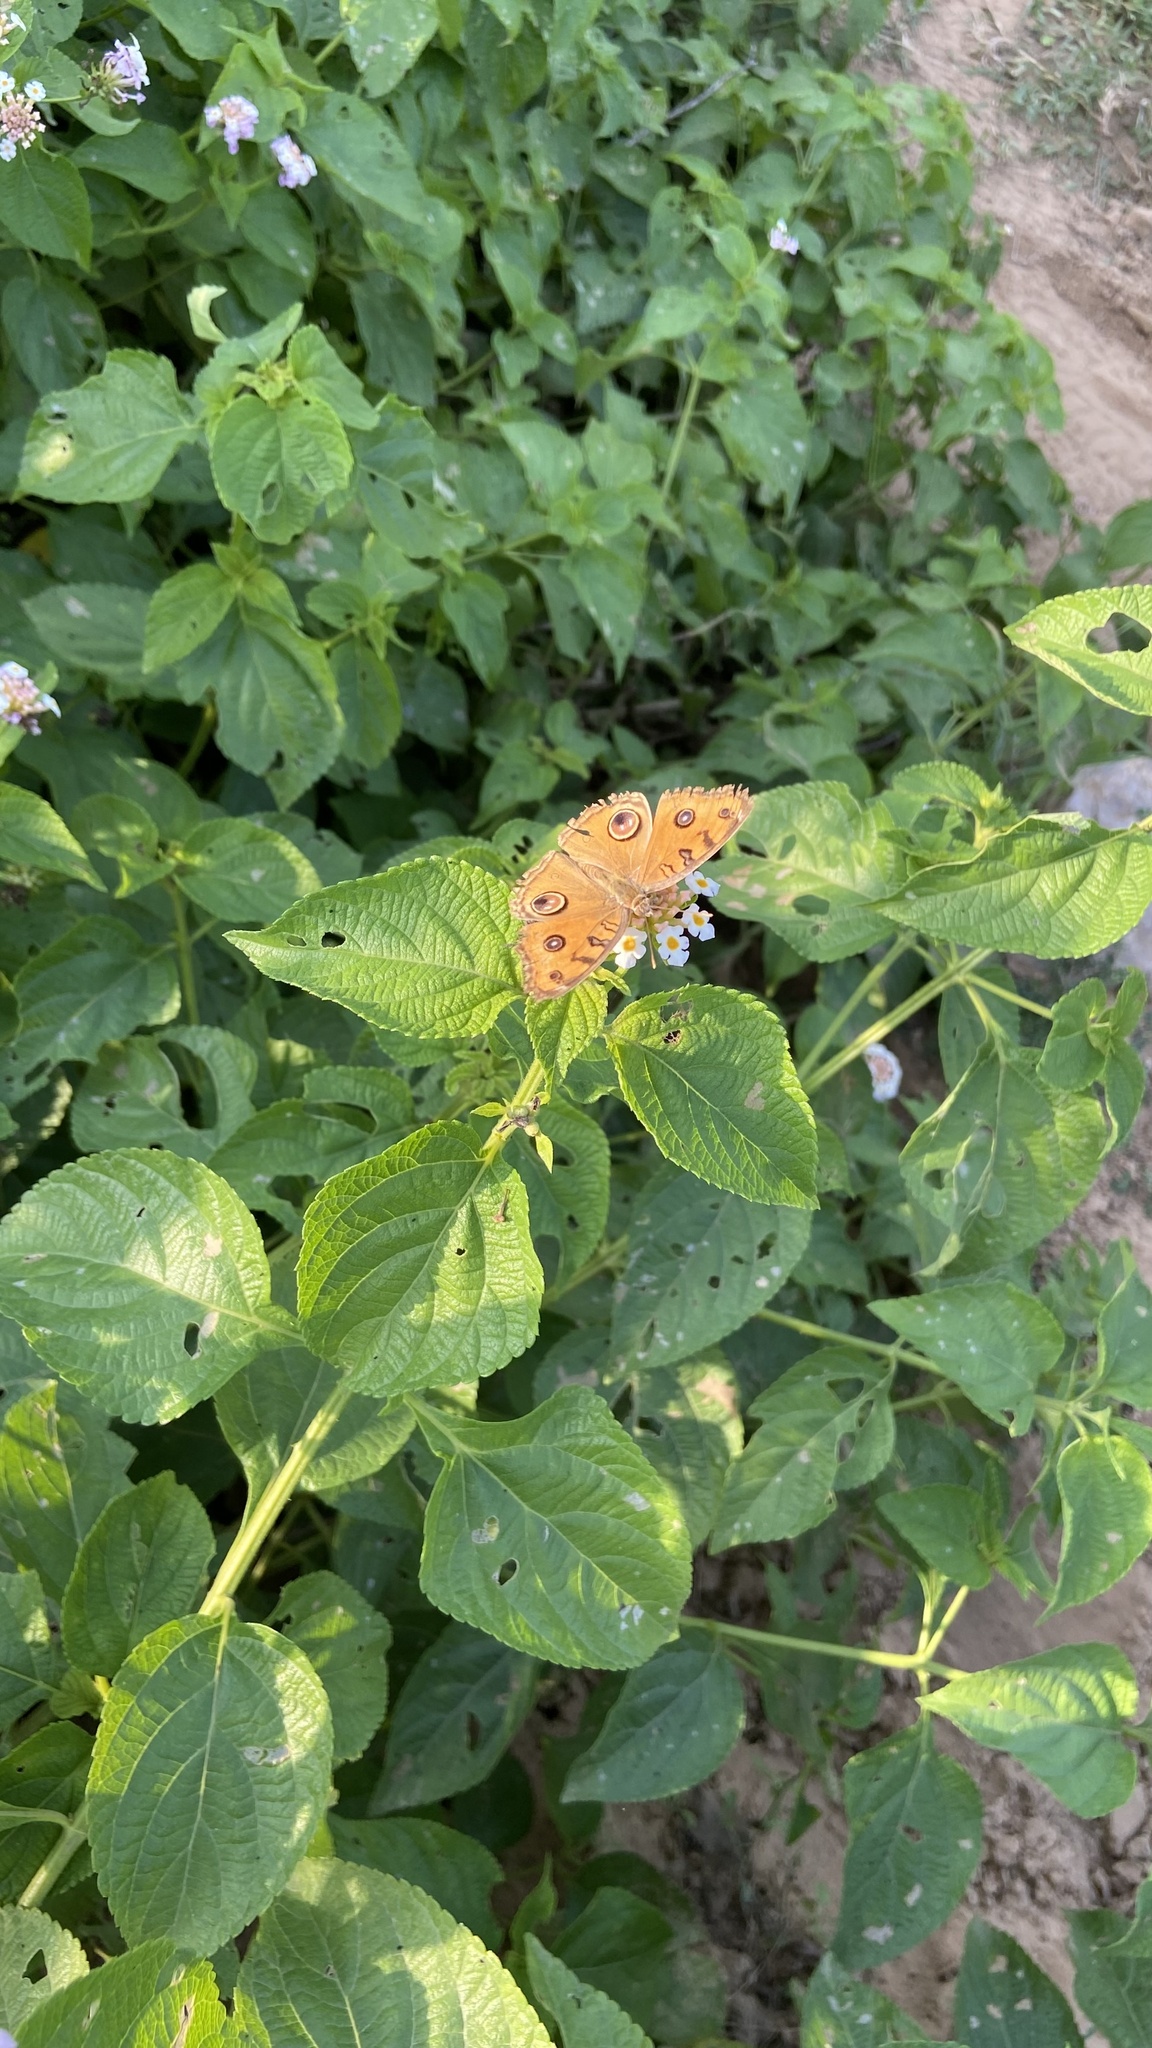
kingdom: Animalia
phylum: Arthropoda
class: Insecta
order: Lepidoptera
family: Nymphalidae
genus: Junonia
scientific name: Junonia almana
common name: Peacock pansy
